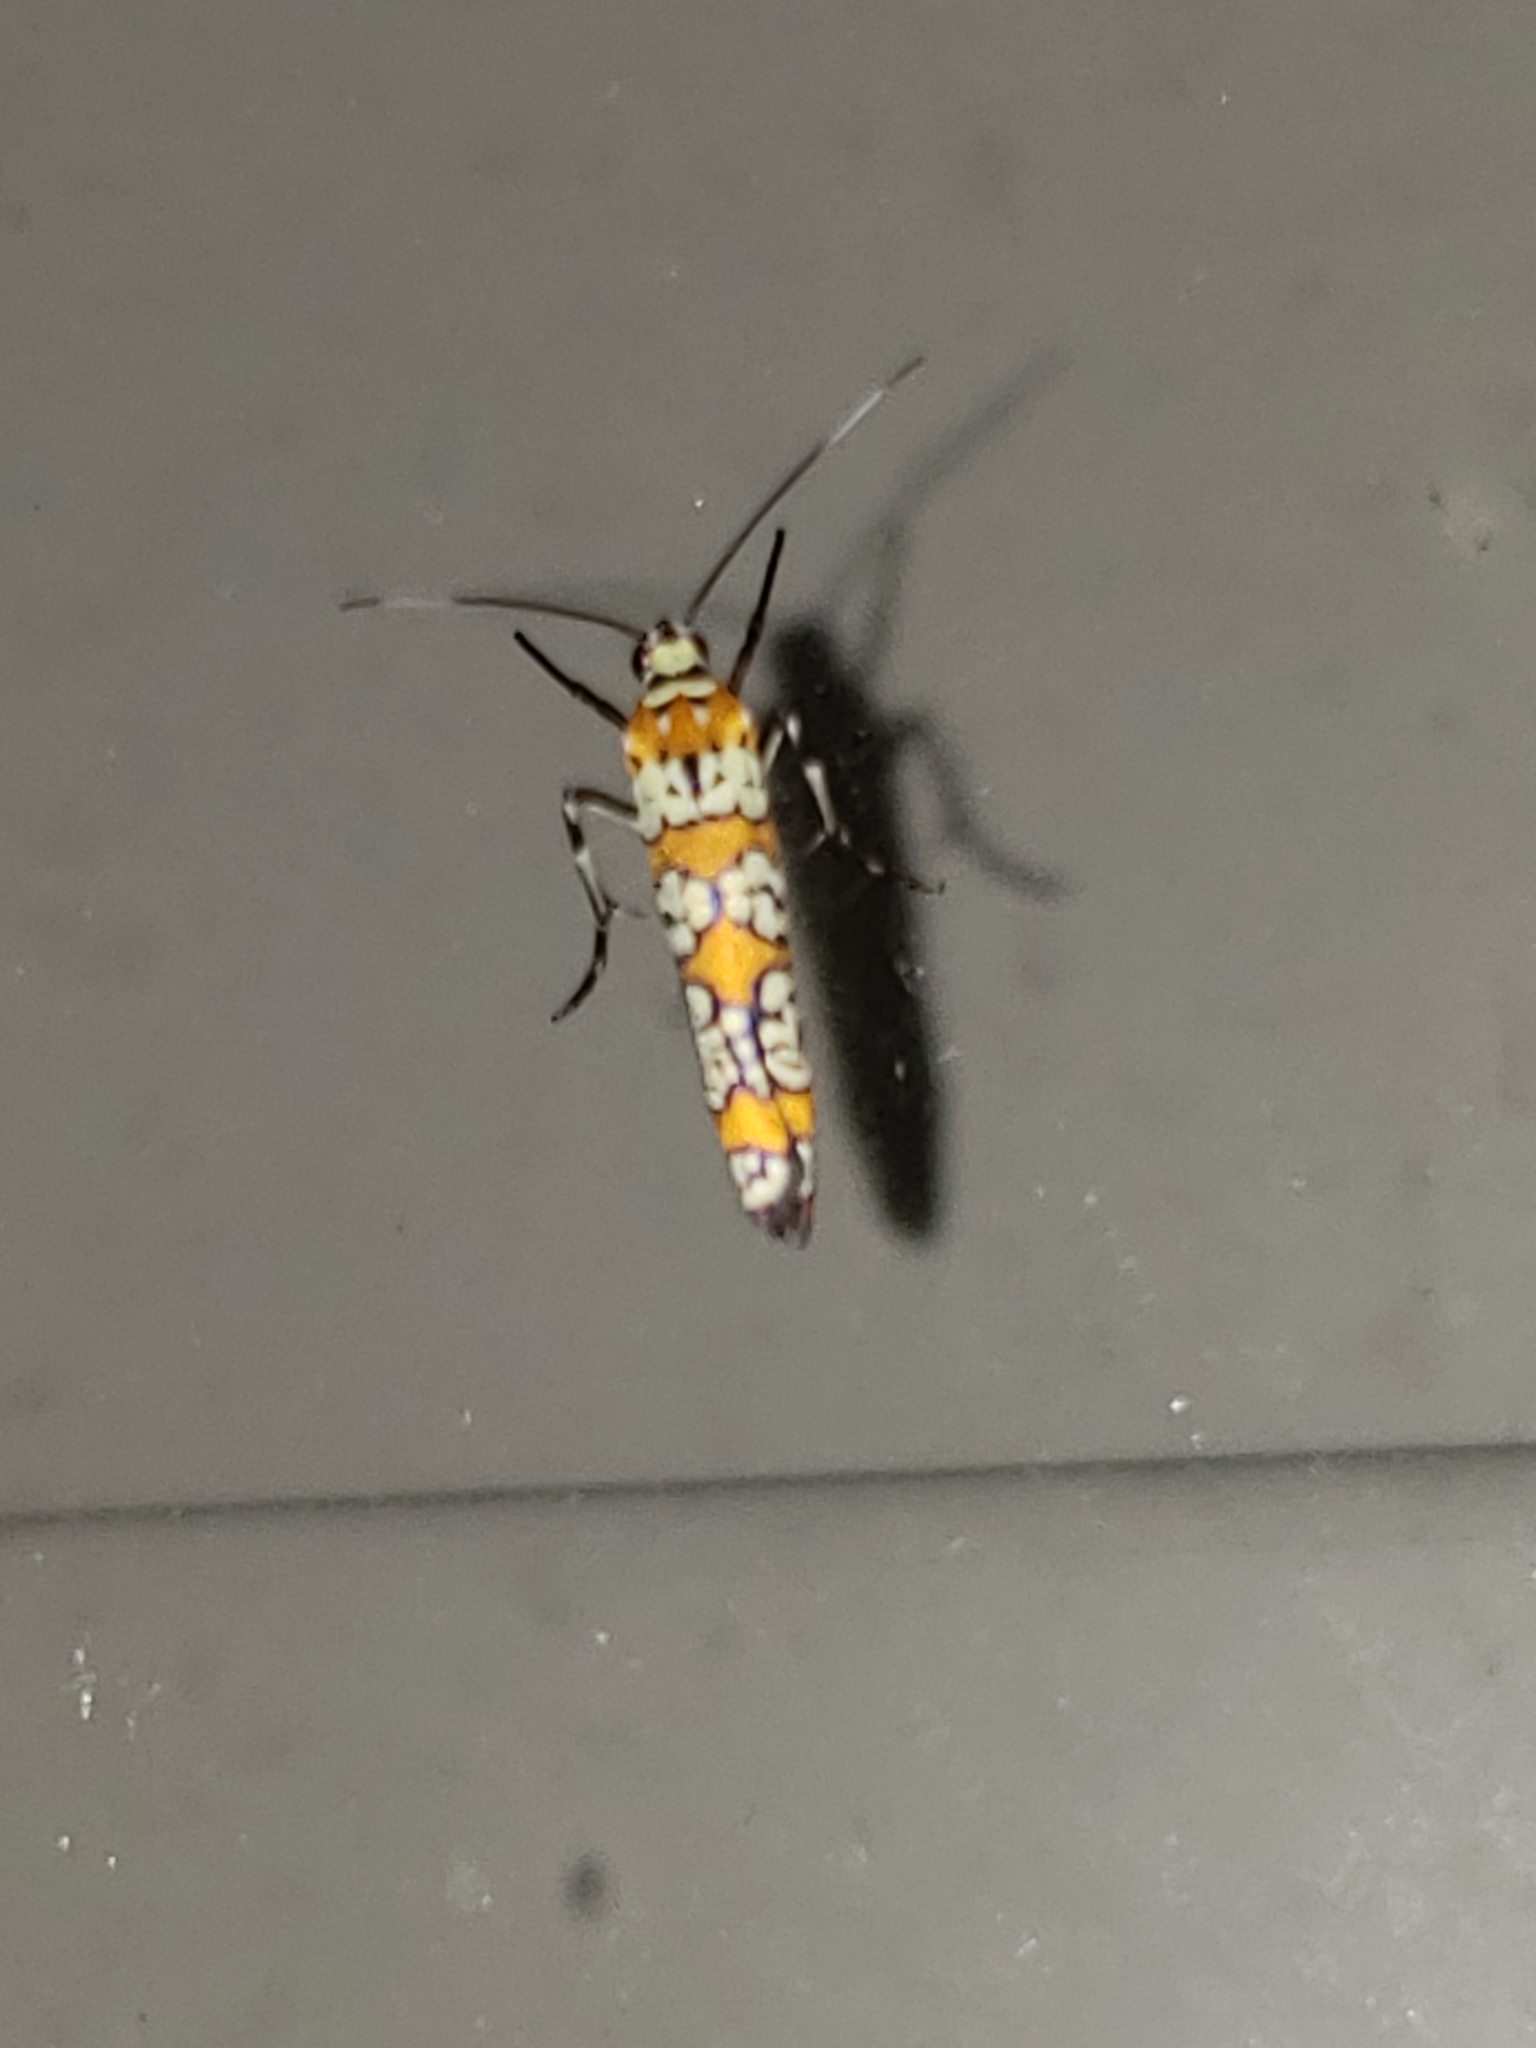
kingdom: Animalia
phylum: Arthropoda
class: Insecta
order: Lepidoptera
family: Attevidae
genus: Atteva
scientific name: Atteva punctella
